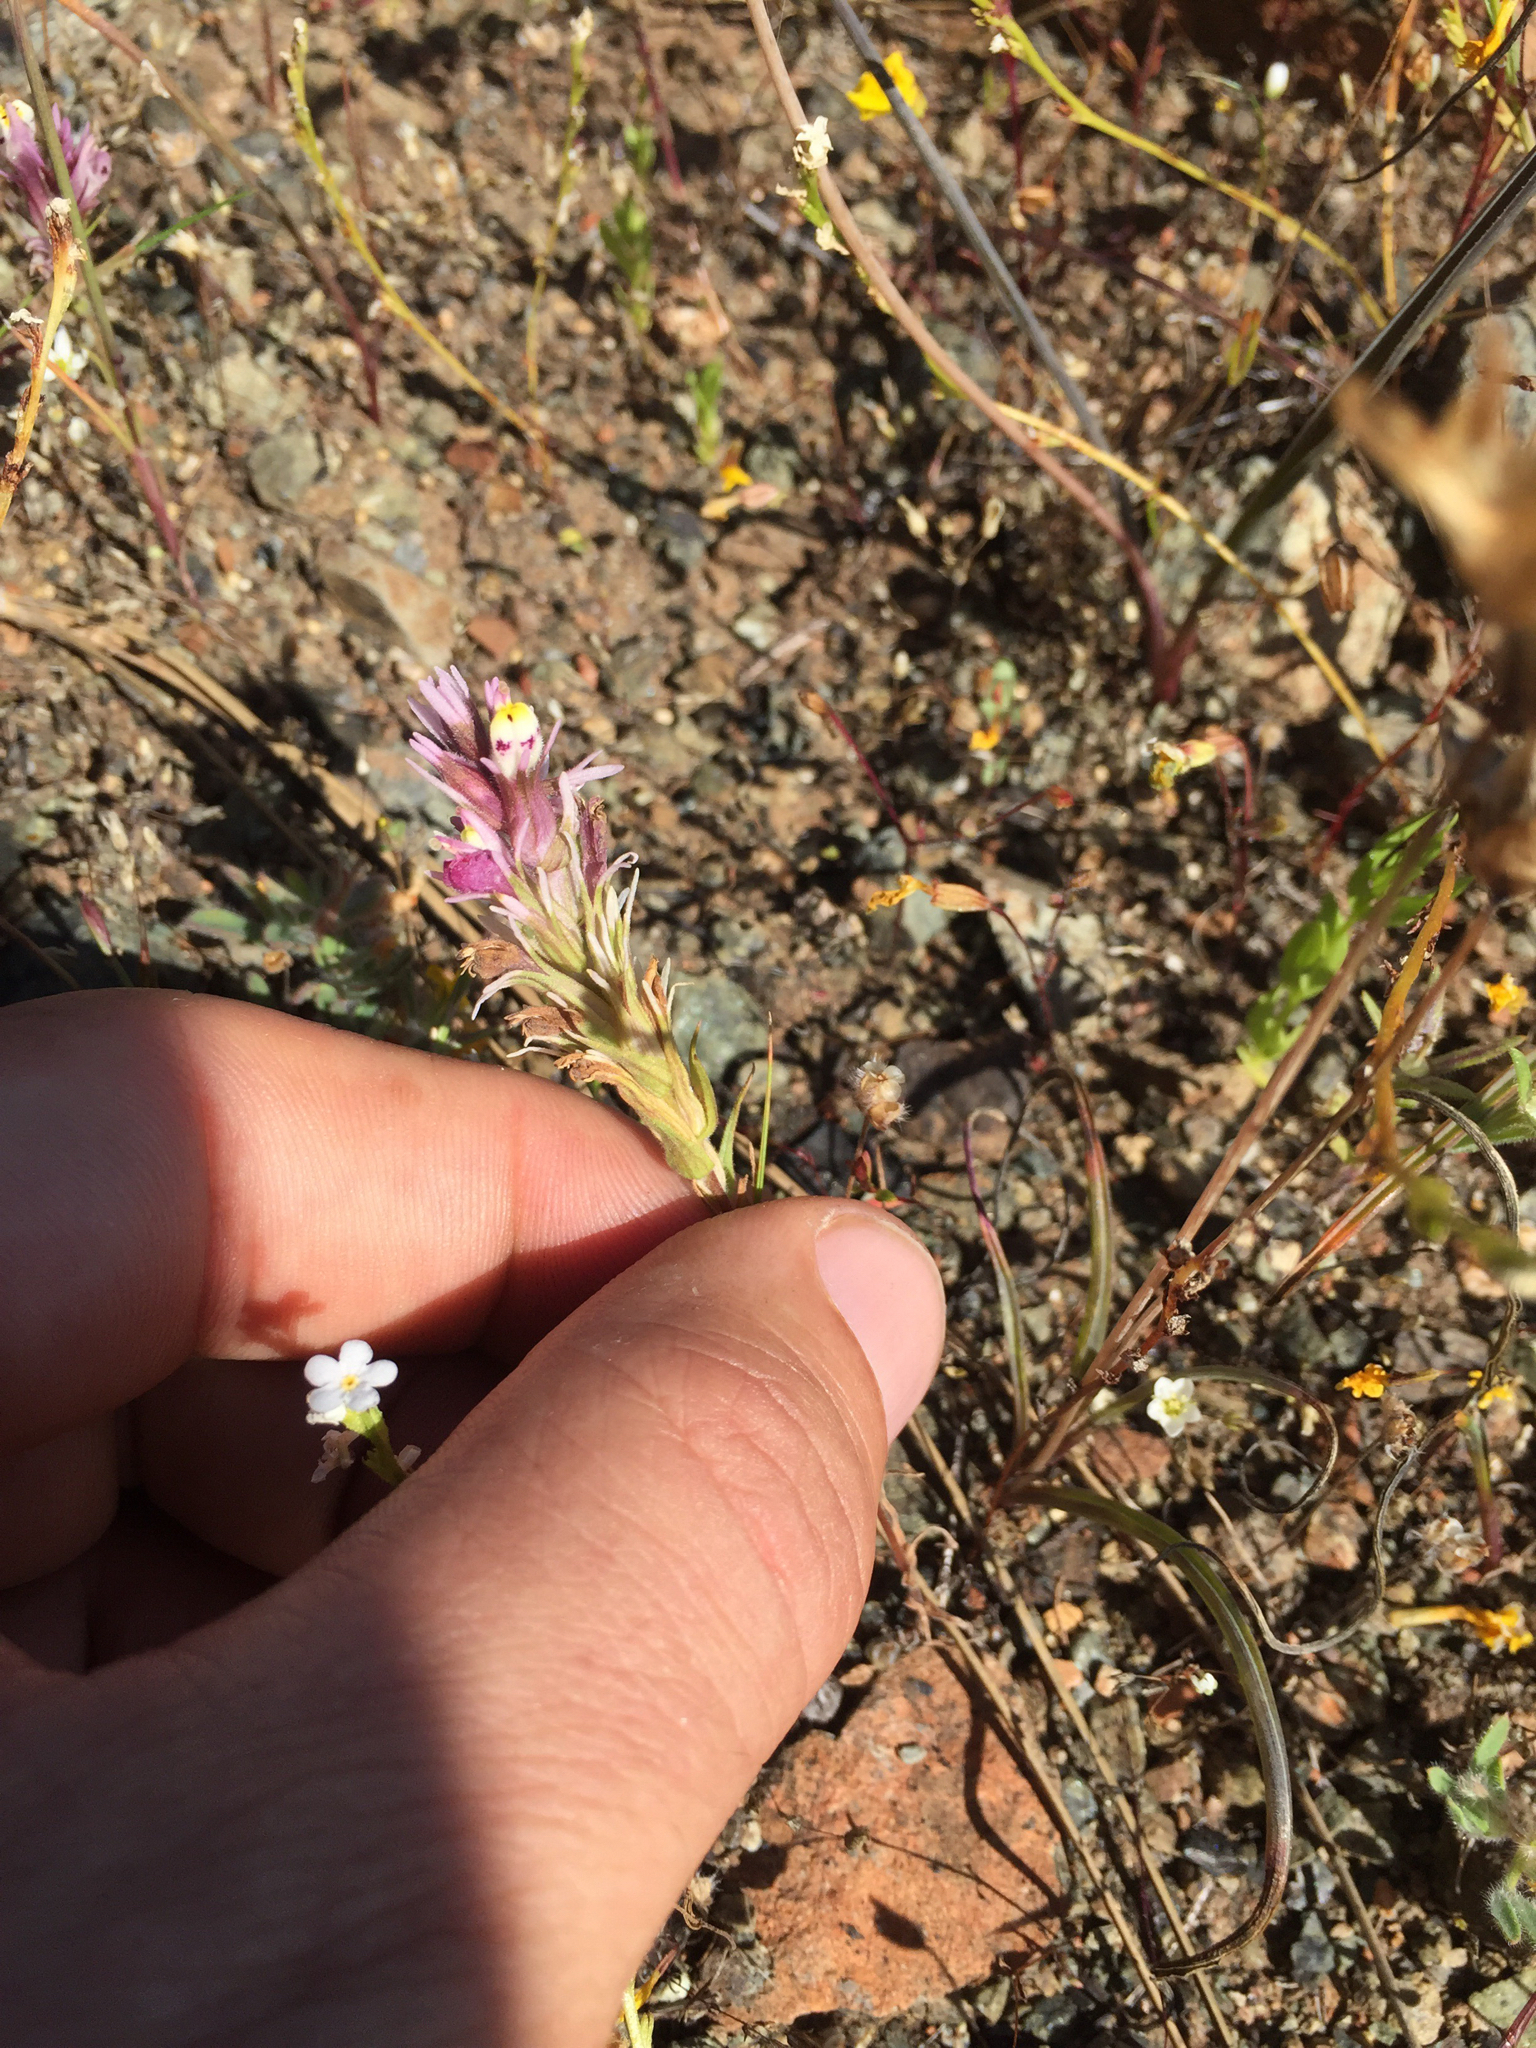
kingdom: Plantae
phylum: Tracheophyta
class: Magnoliopsida
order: Lamiales
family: Orobanchaceae
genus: Castilleja
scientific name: Castilleja densiflora
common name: Dense-flower indian paintbrush
